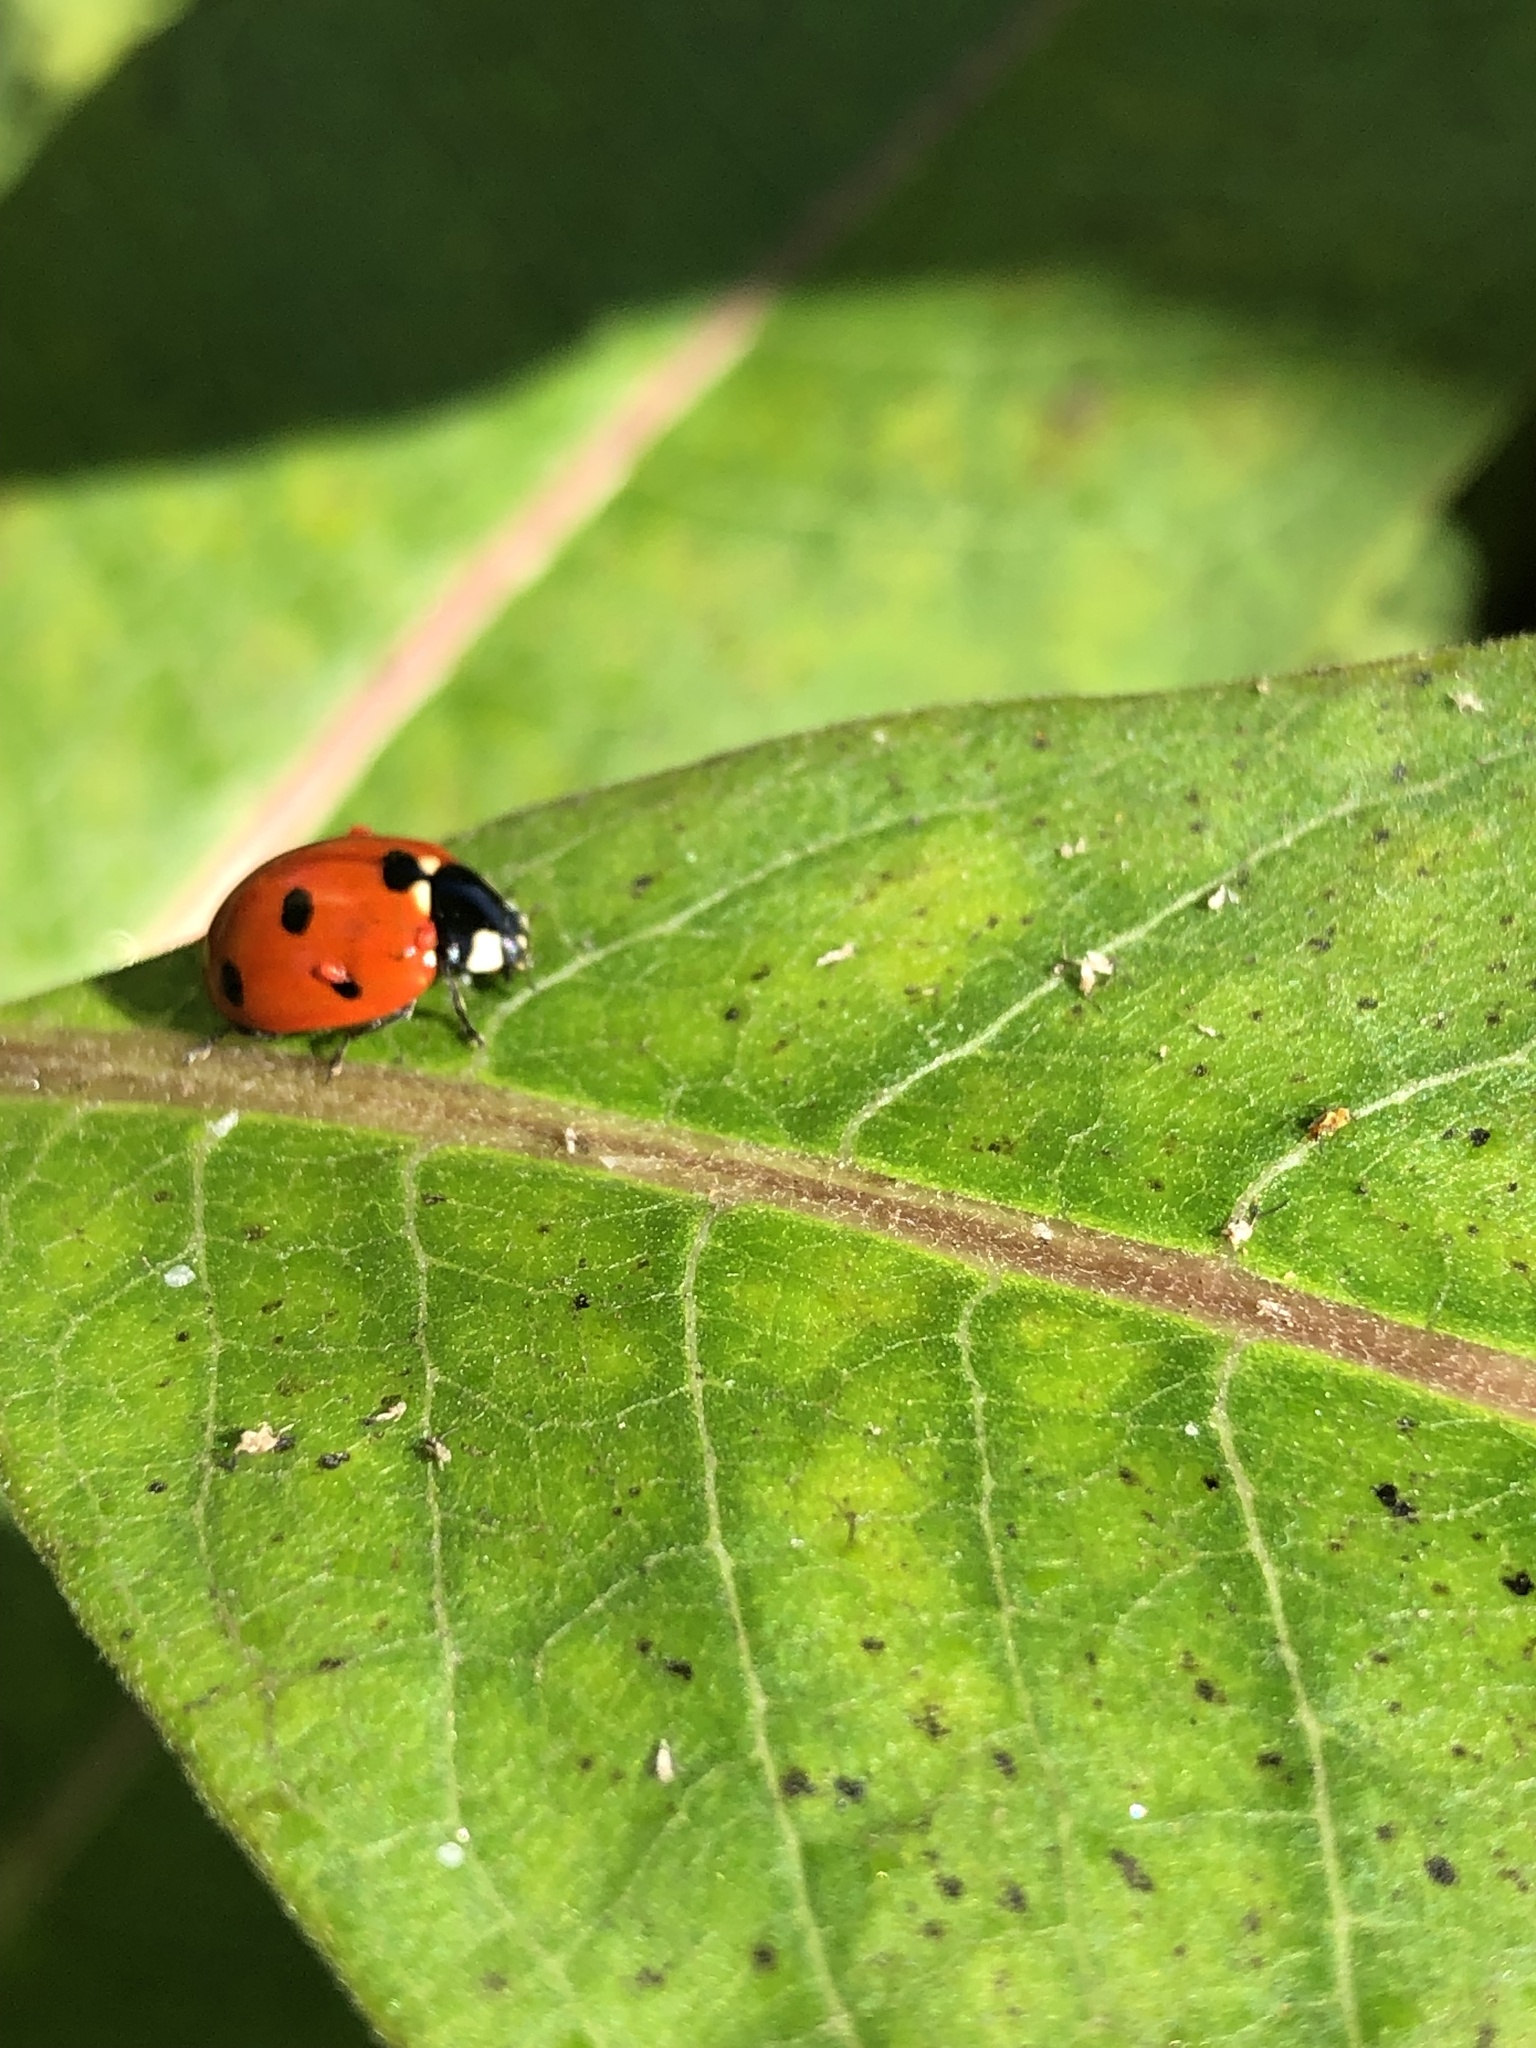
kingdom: Animalia
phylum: Arthropoda
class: Insecta
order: Coleoptera
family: Coccinellidae
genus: Coccinella
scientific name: Coccinella septempunctata
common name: Sevenspotted lady beetle
